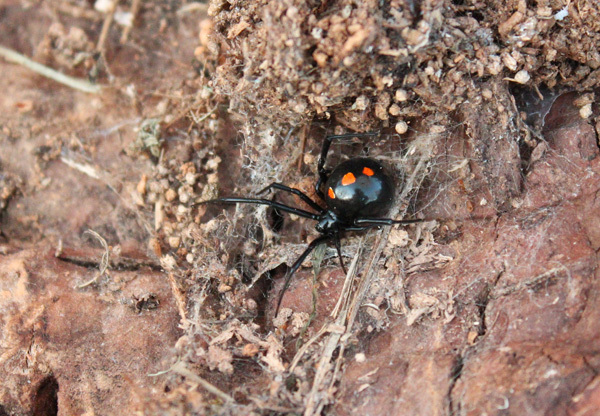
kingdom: Animalia
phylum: Arthropoda
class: Arachnida
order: Araneae
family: Theridiidae
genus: Latrodectus
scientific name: Latrodectus mactans
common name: Cobweb spiders
